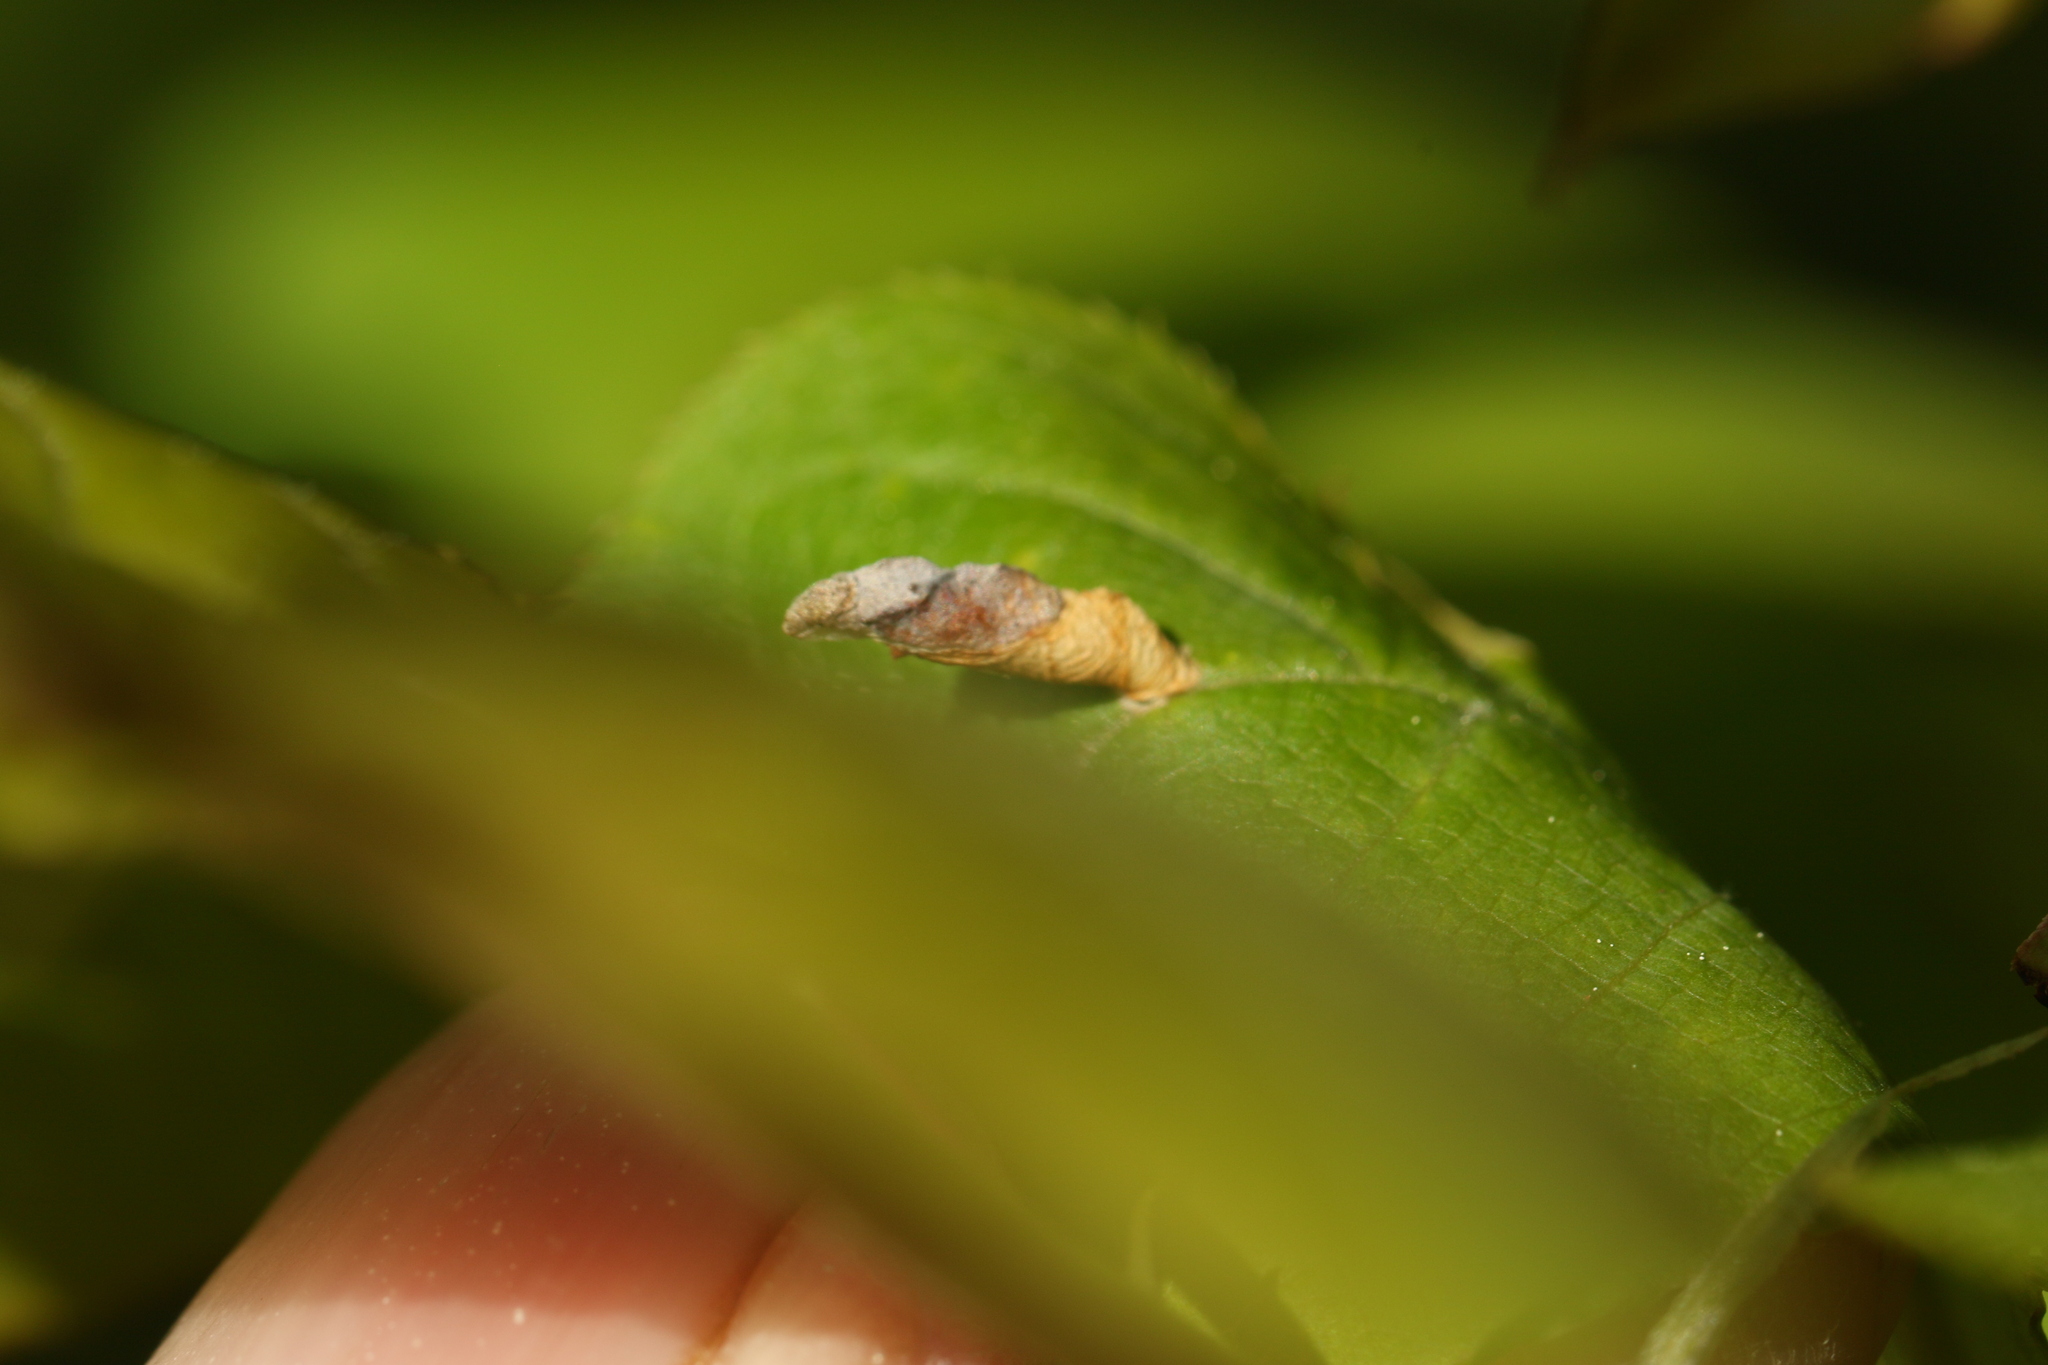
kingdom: Animalia
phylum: Arthropoda
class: Insecta
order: Lepidoptera
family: Coleophoridae
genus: Coleophora
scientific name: Coleophora pruniella
